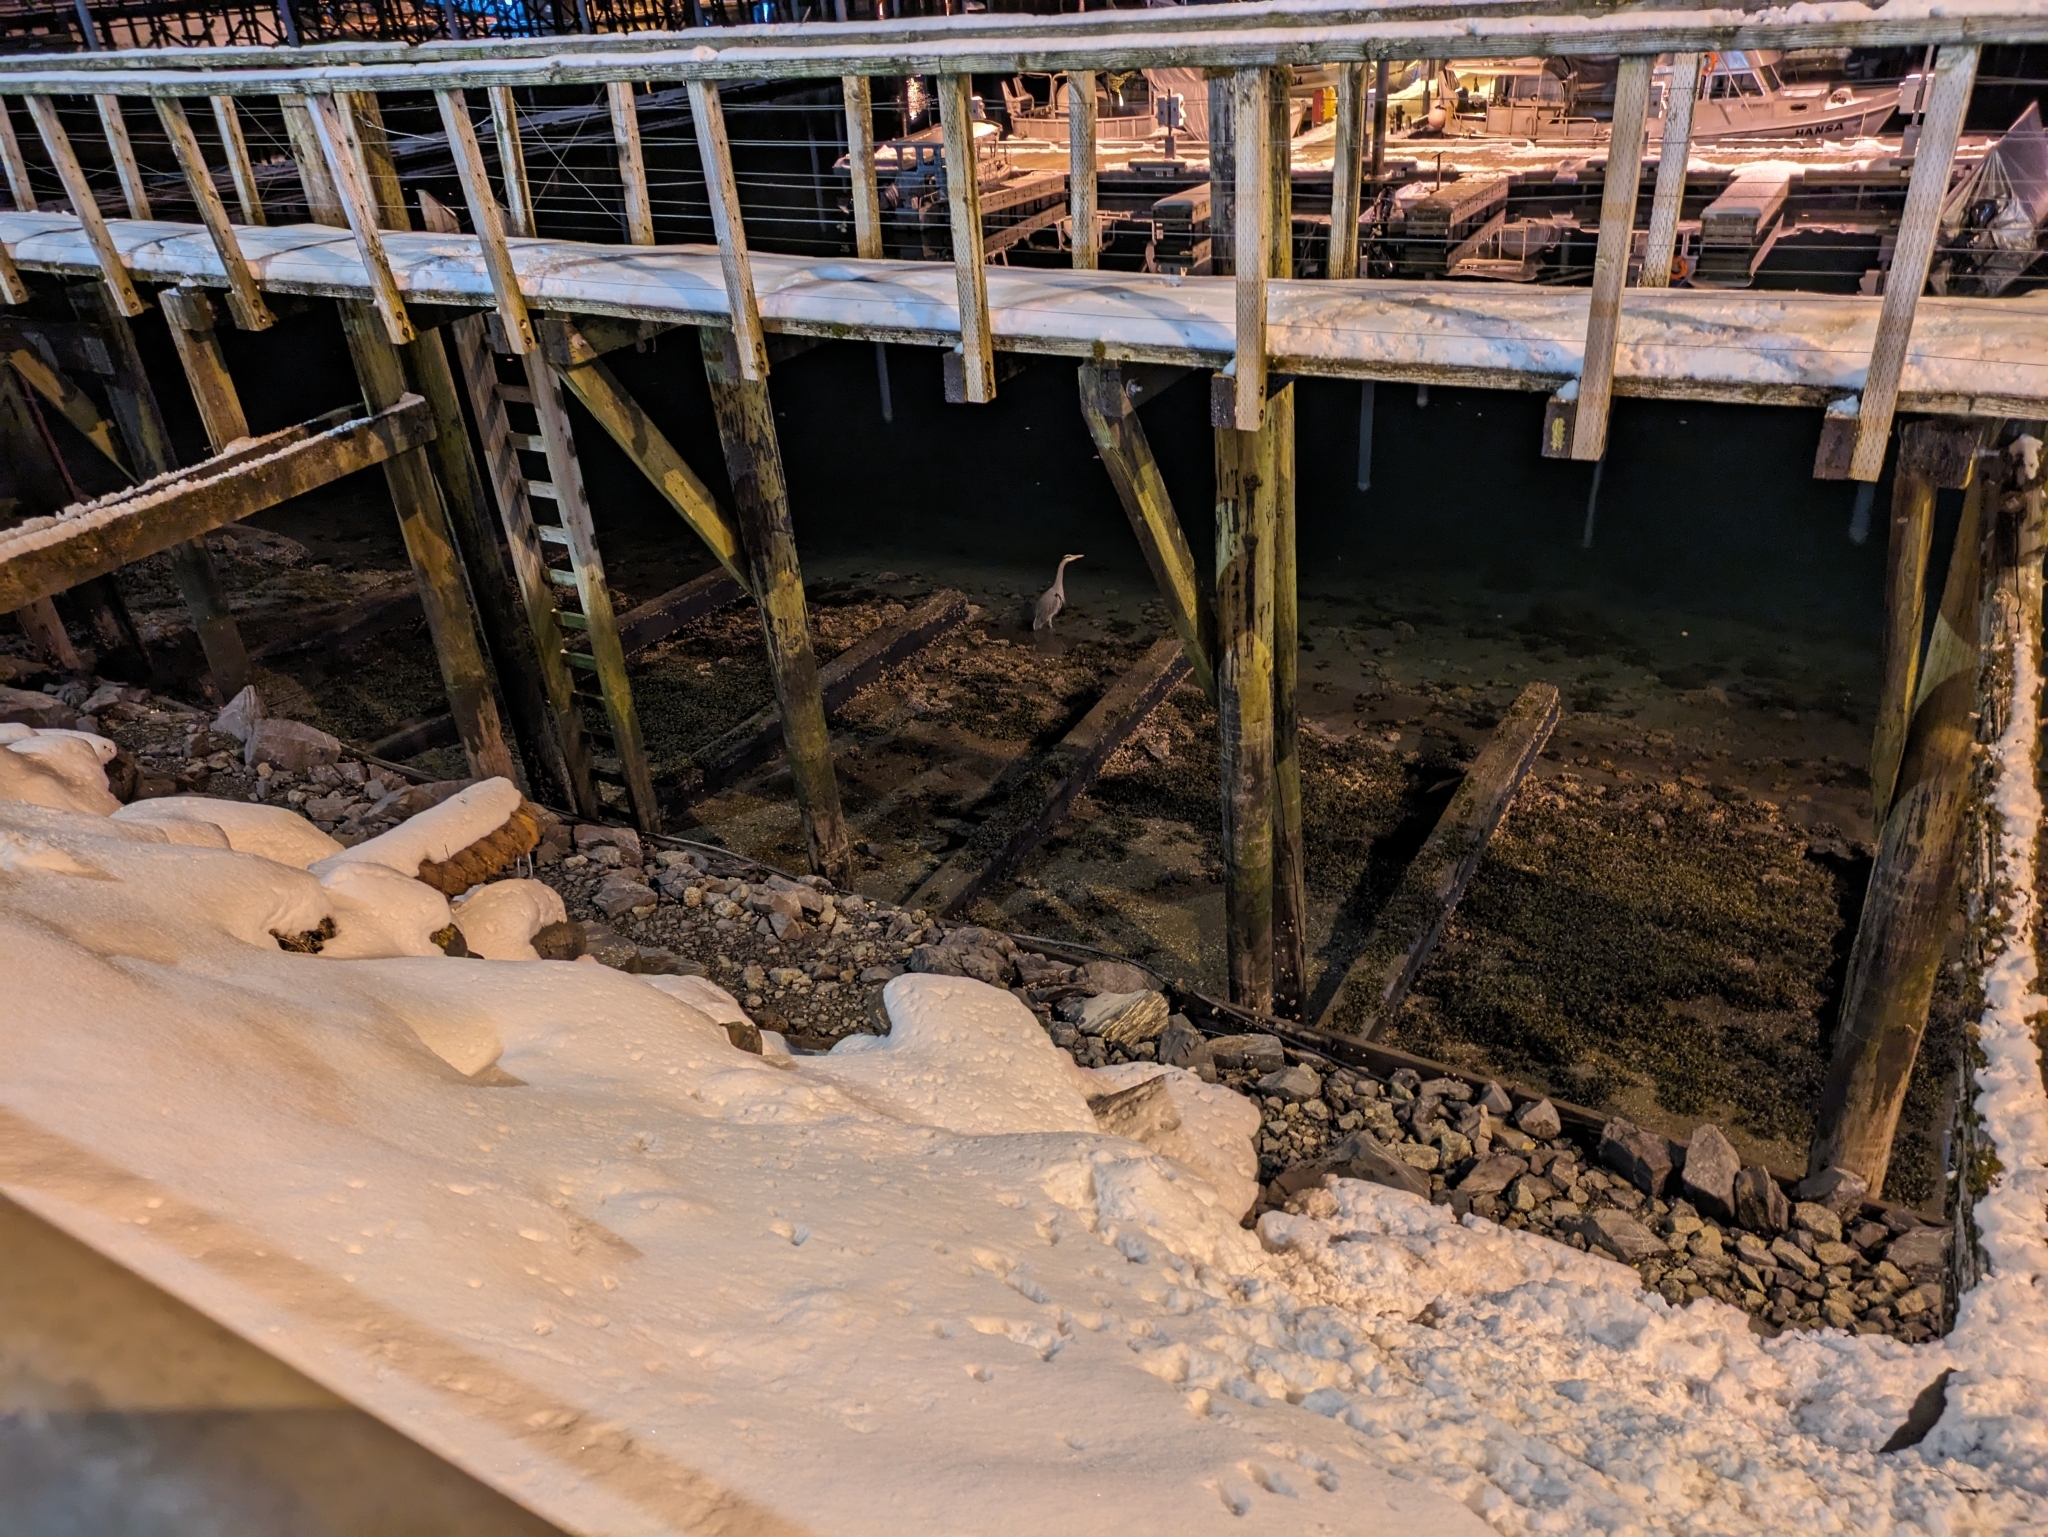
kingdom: Animalia
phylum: Chordata
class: Aves
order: Pelecaniformes
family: Ardeidae
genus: Ardea
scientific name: Ardea herodias
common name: Great blue heron
